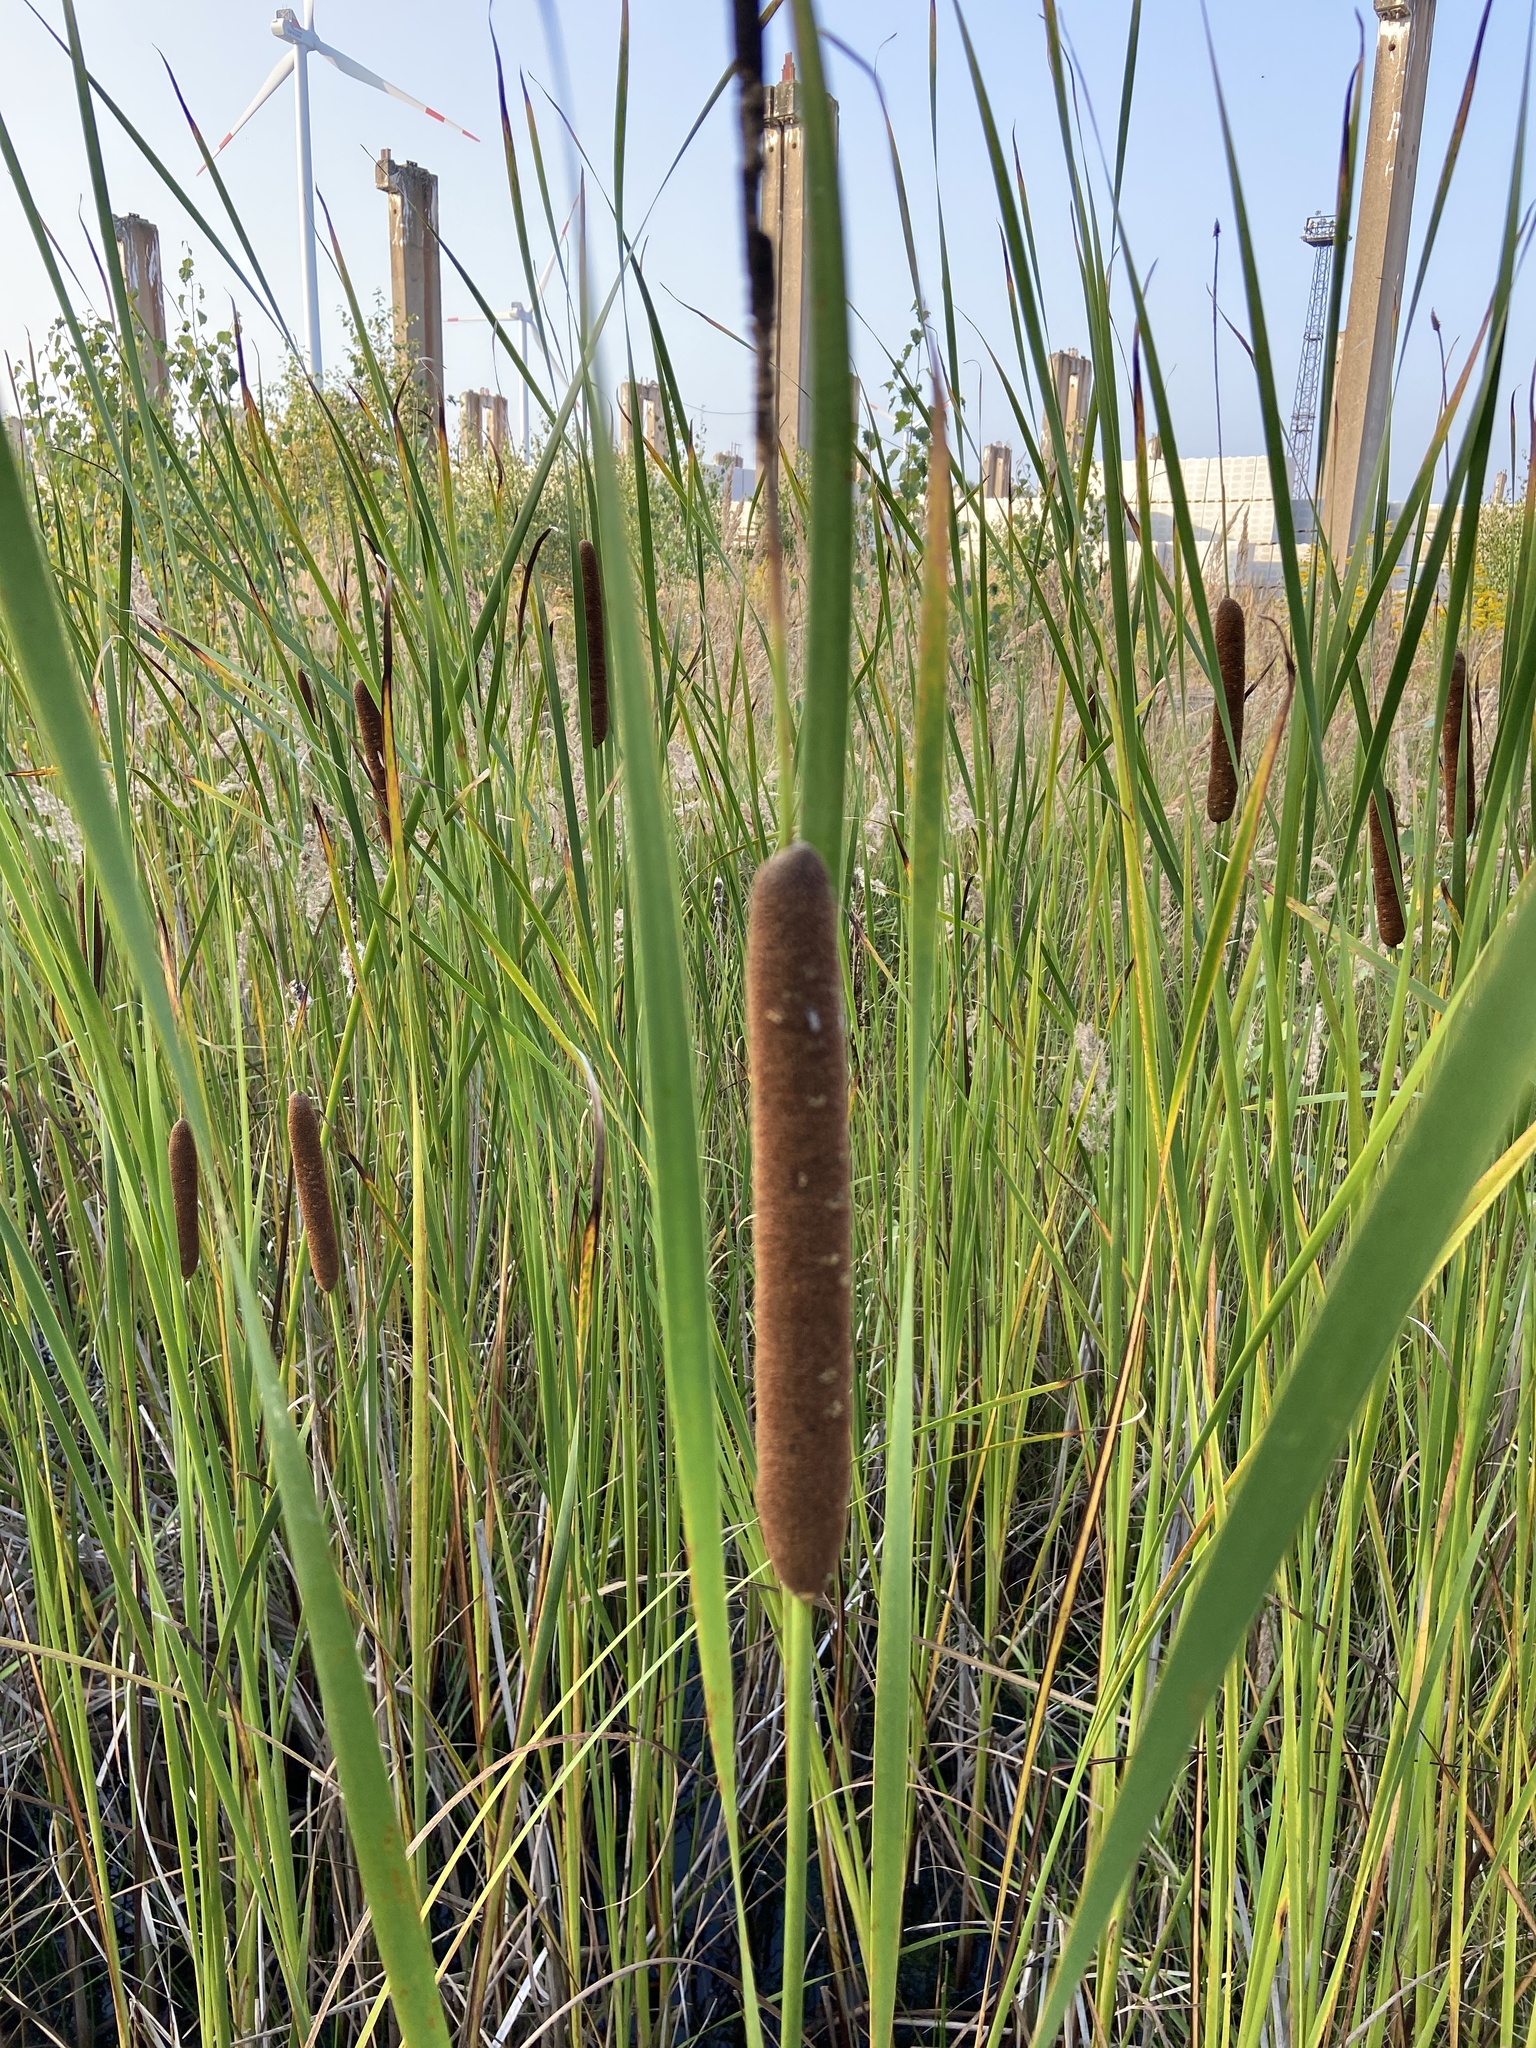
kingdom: Plantae
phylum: Tracheophyta
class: Liliopsida
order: Poales
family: Typhaceae
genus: Typha
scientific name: Typha angustifolia
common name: Lesser bulrush
